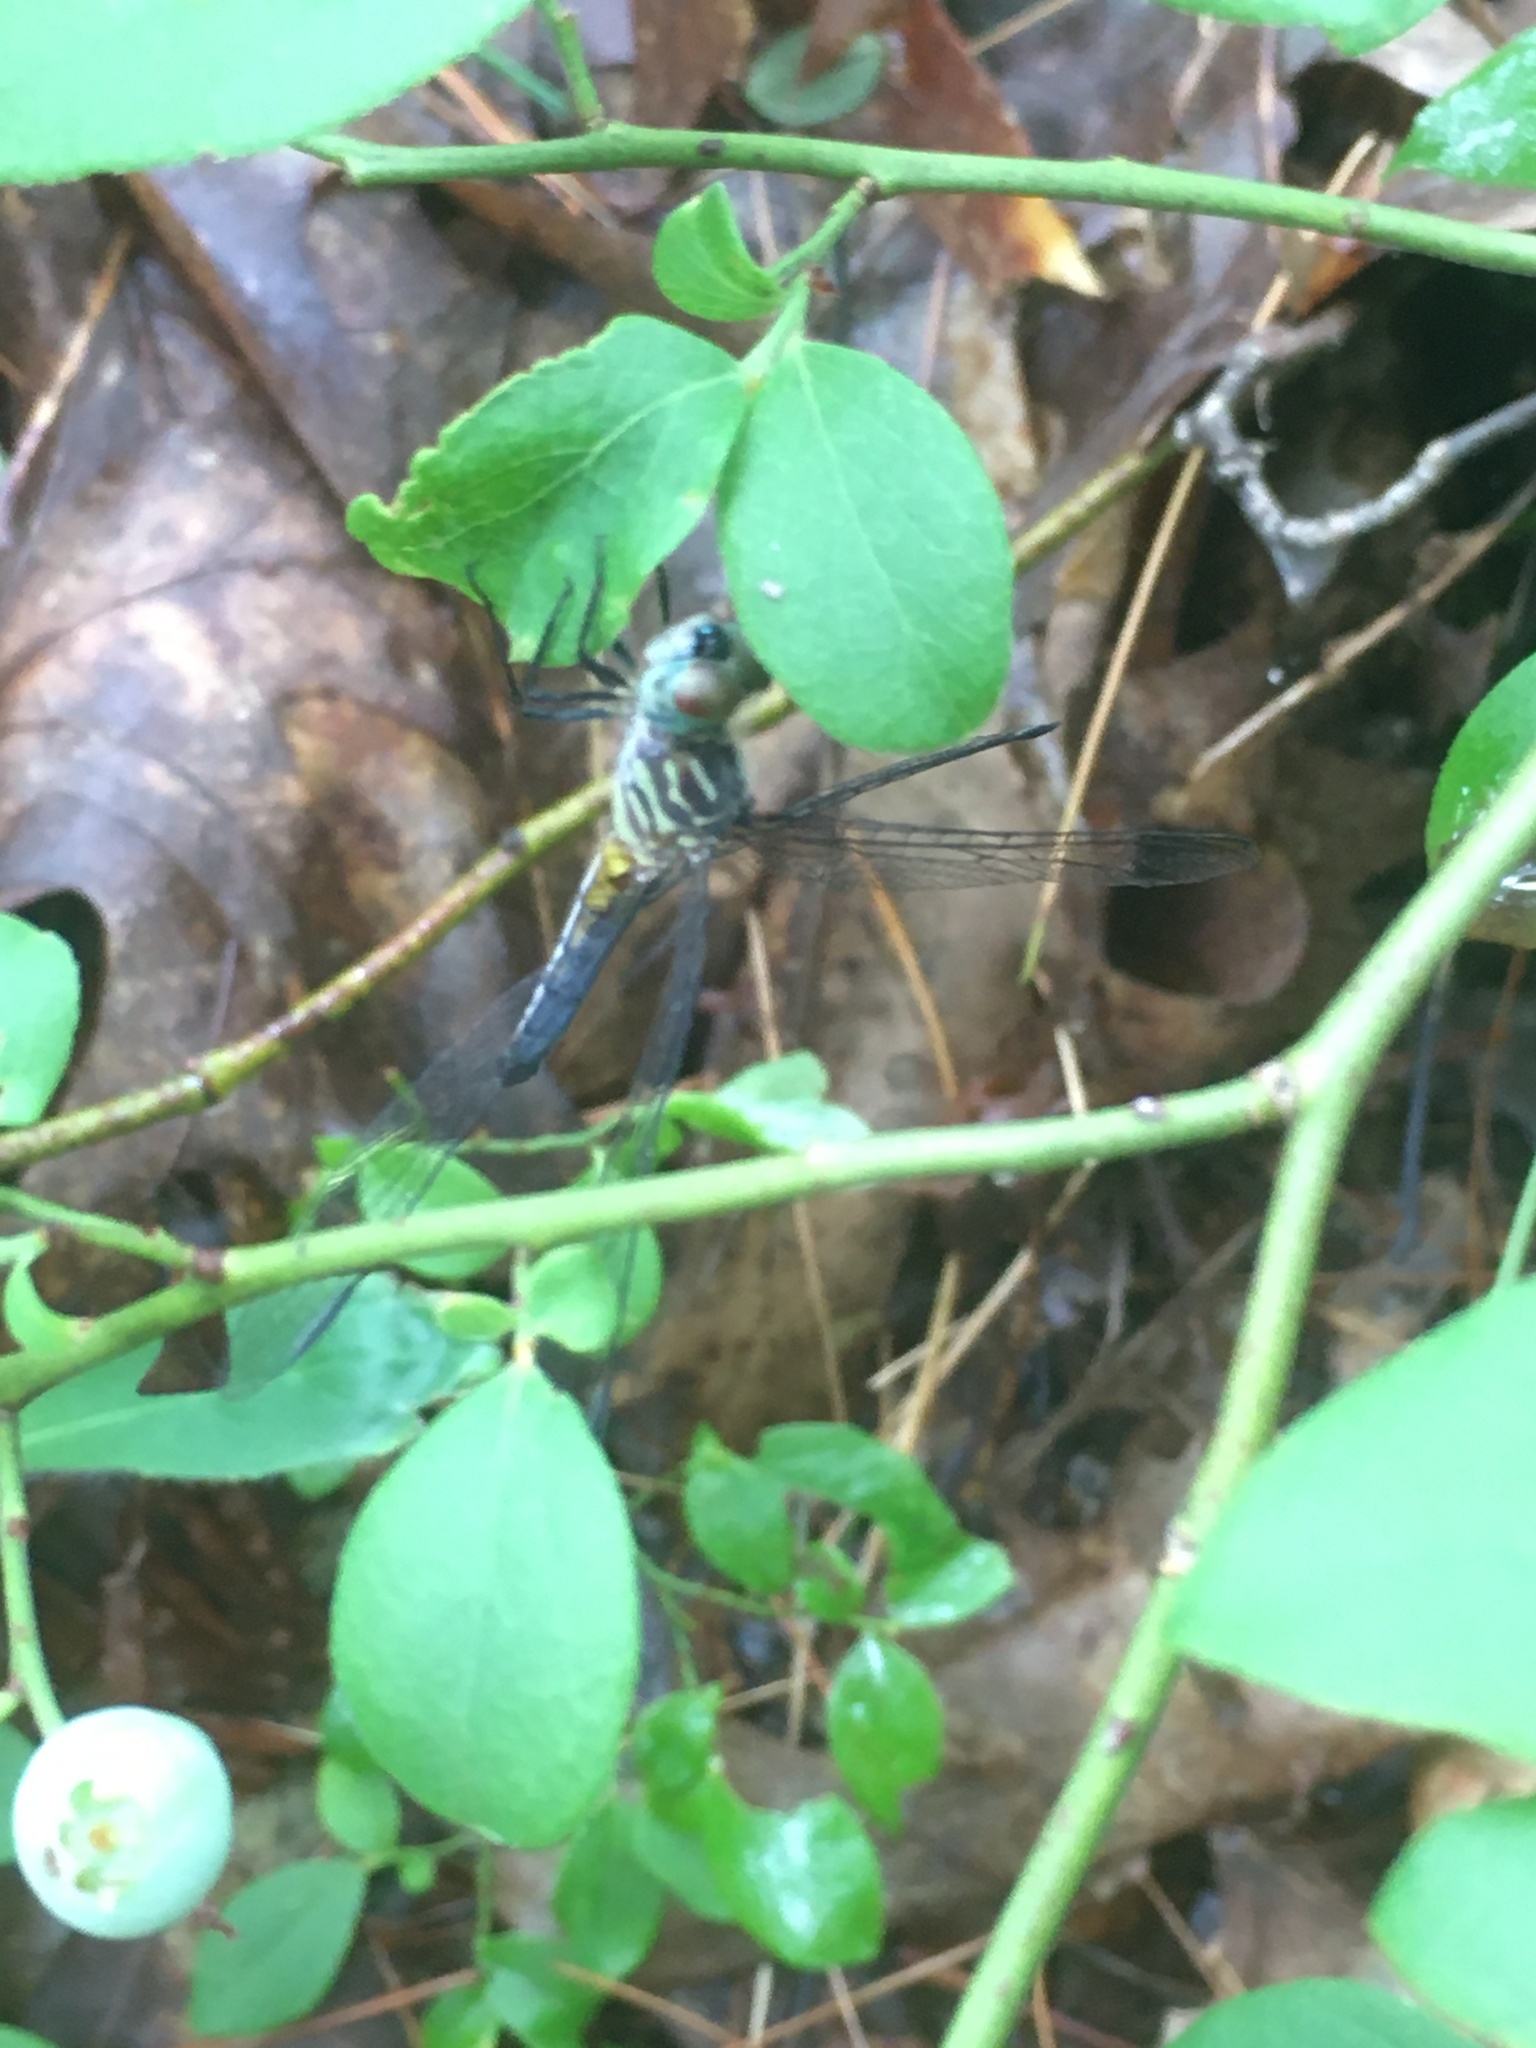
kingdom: Animalia
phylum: Arthropoda
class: Insecta
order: Odonata
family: Libellulidae
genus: Pachydiplax
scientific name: Pachydiplax longipennis
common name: Blue dasher
